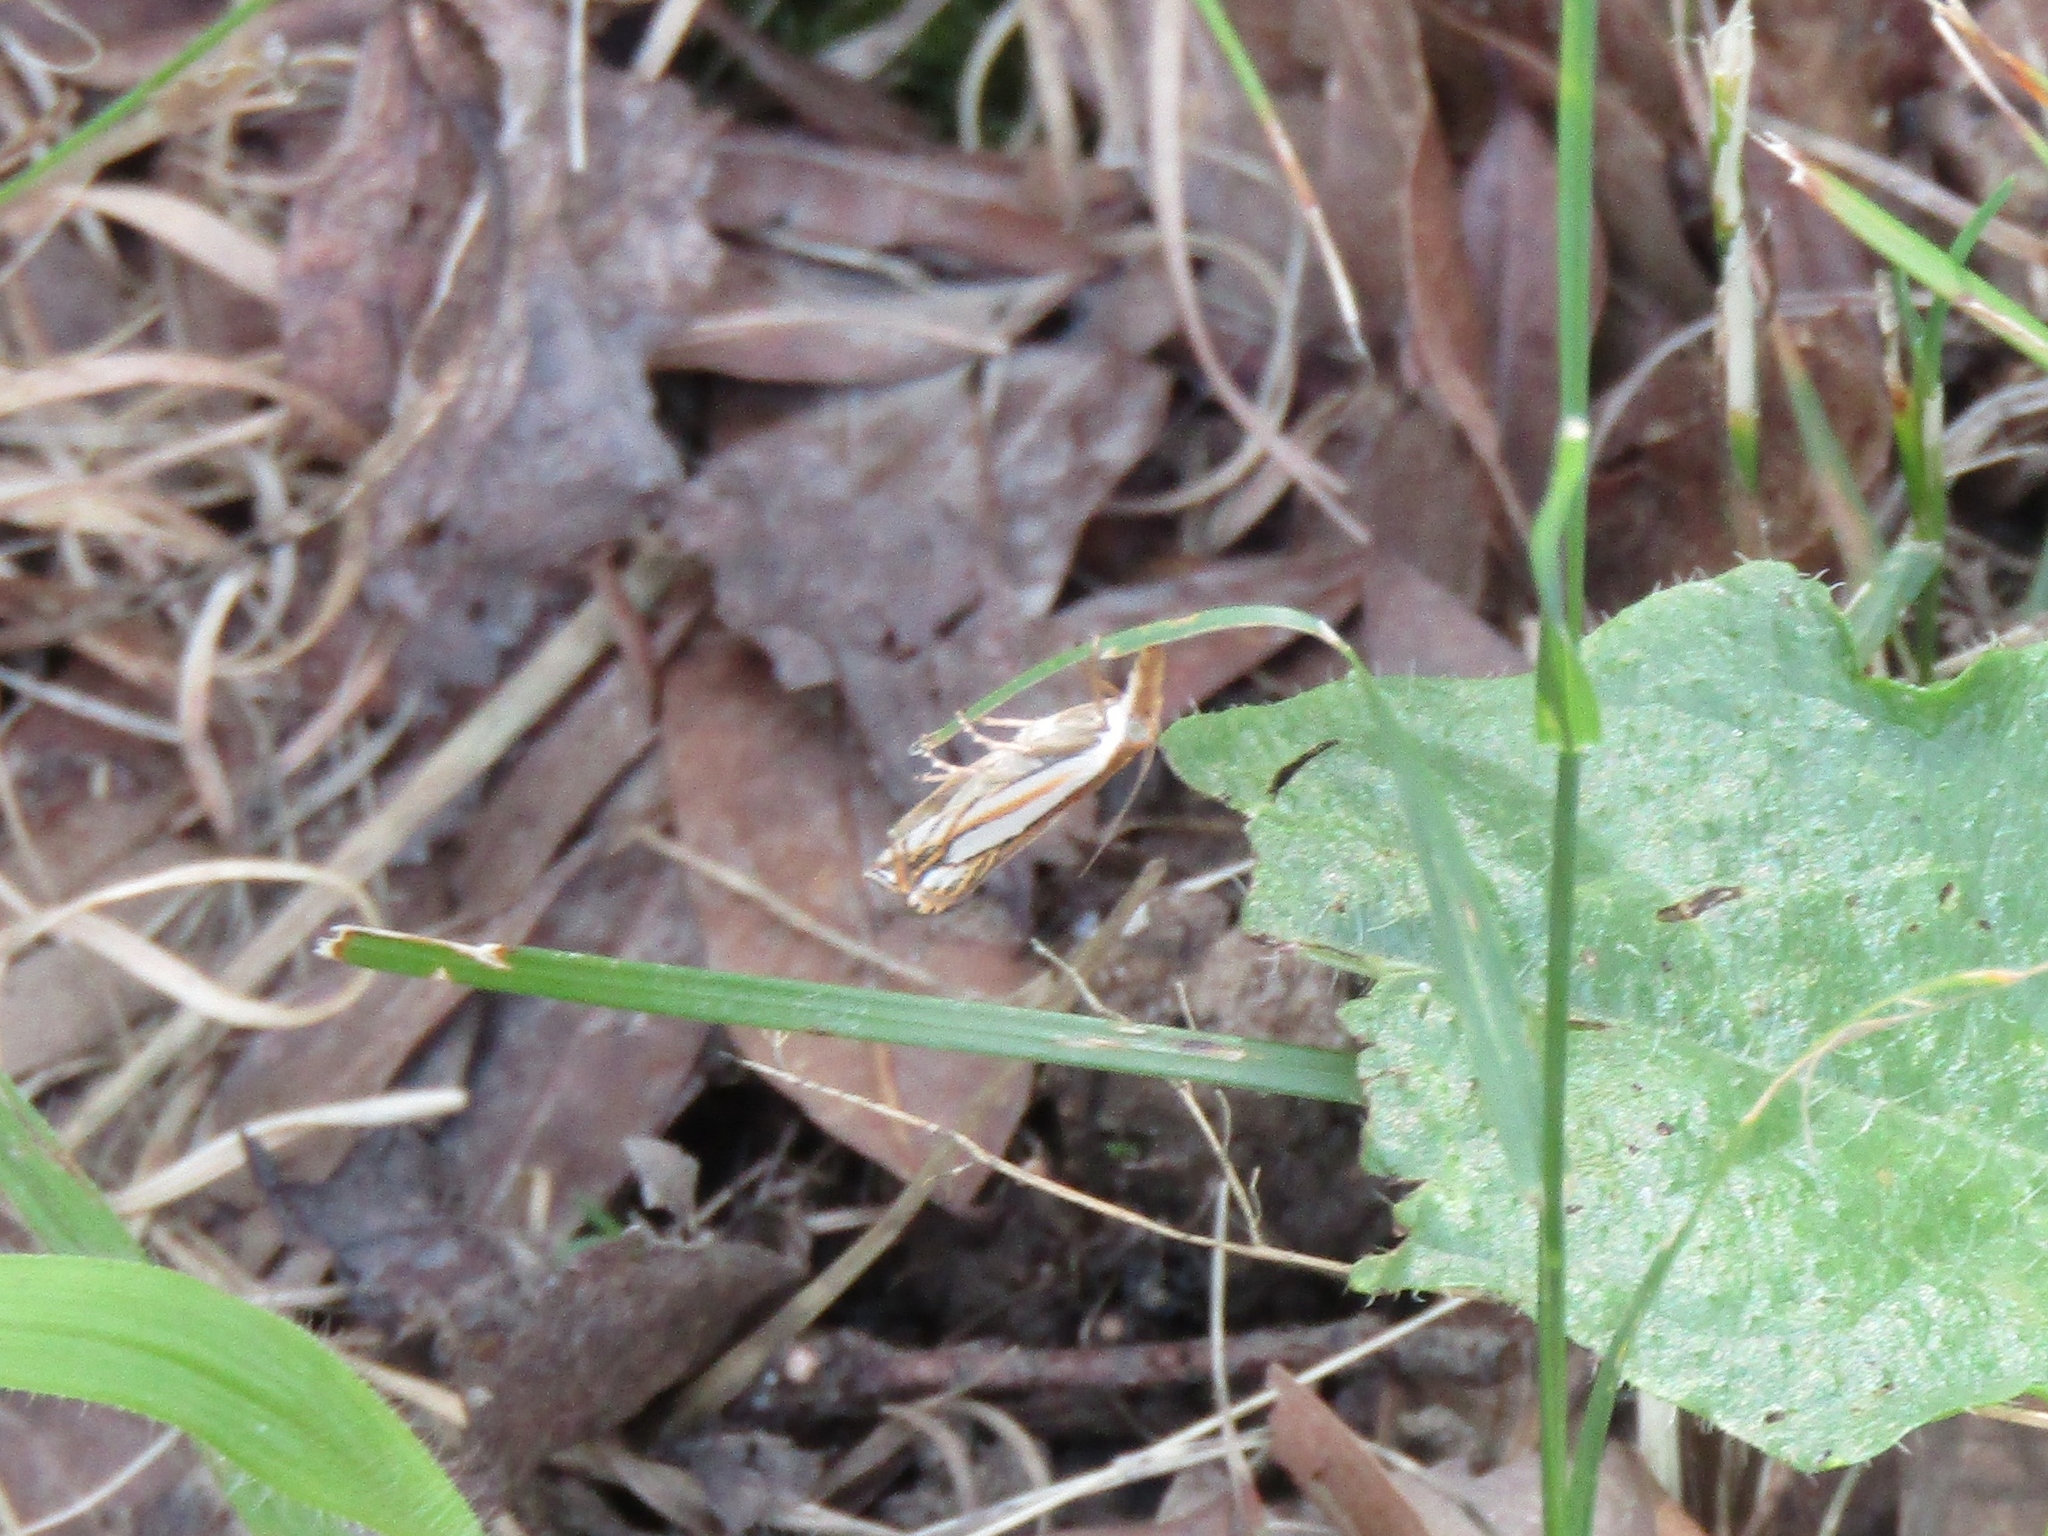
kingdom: Animalia
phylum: Arthropoda
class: Insecta
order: Lepidoptera
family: Crambidae
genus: Crambus
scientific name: Crambus saltuellus
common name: Pasture grass-veneer
